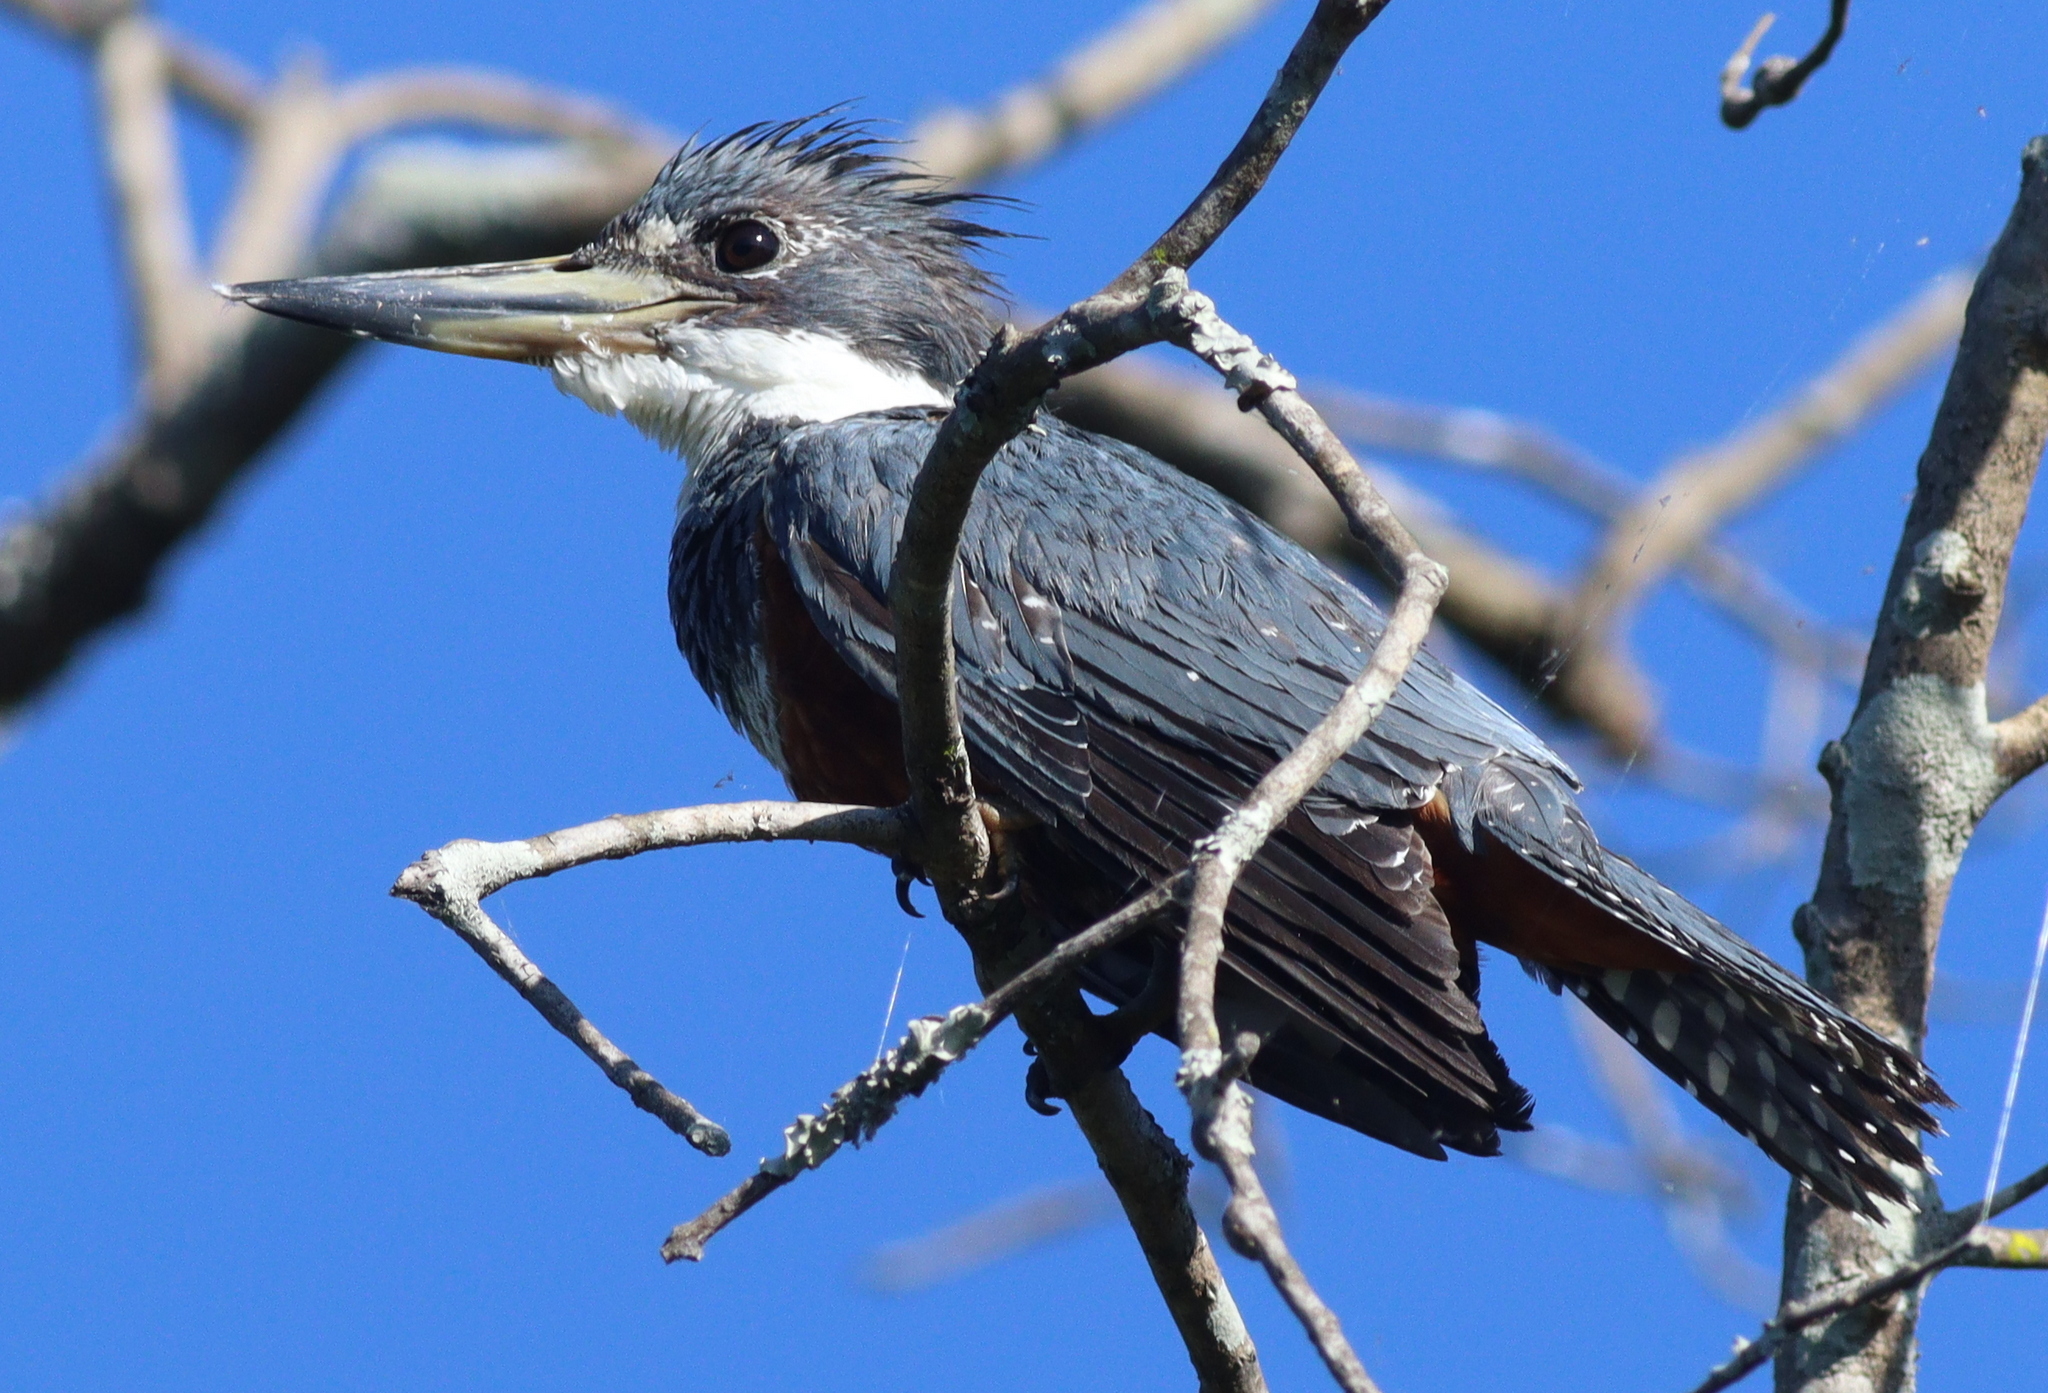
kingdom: Animalia
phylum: Chordata
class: Aves
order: Coraciiformes
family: Alcedinidae
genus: Megaceryle
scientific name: Megaceryle torquata
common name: Ringed kingfisher
